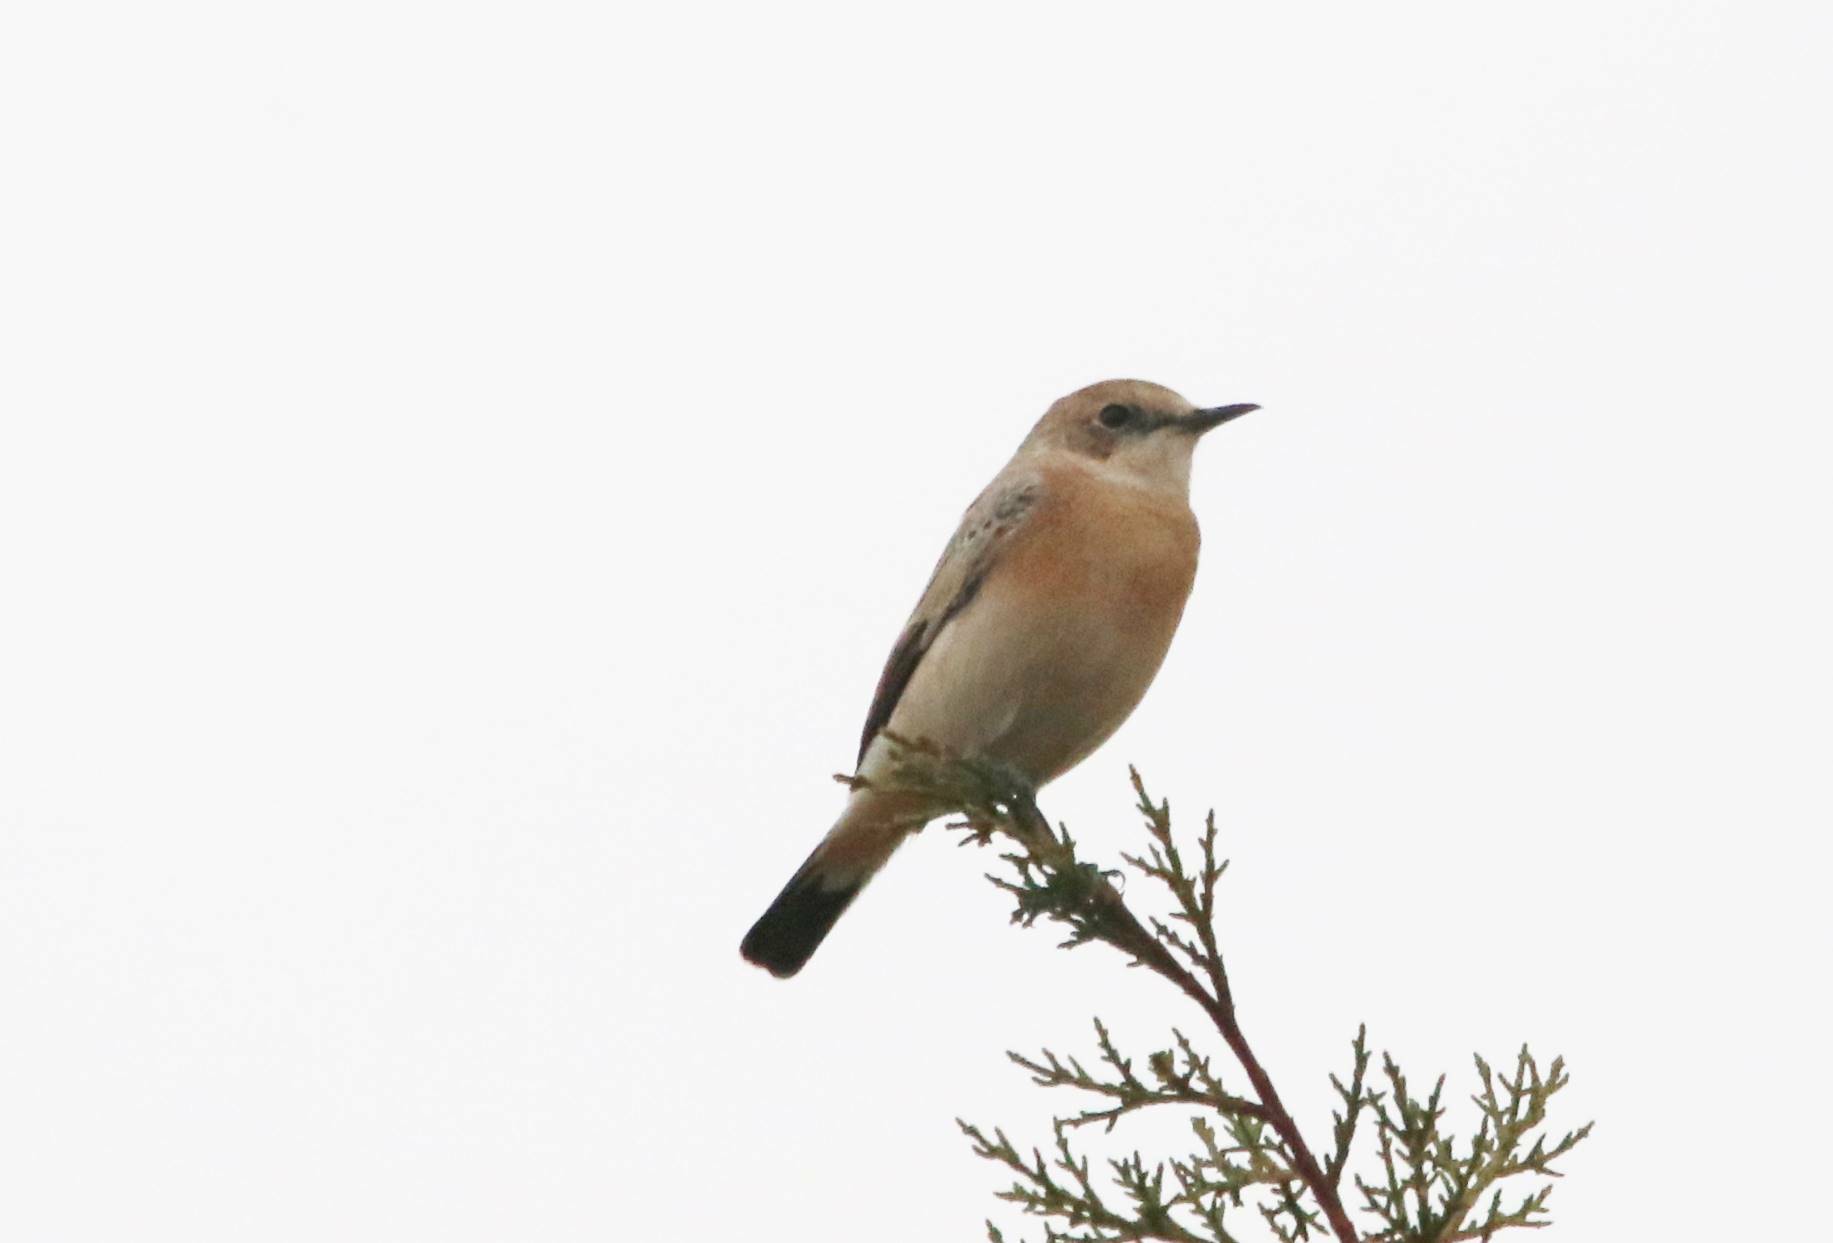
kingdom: Animalia
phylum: Chordata
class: Aves
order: Passeriformes
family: Muscicapidae
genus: Oenanthe
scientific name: Oenanthe hispanica
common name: Black-eared wheatear
